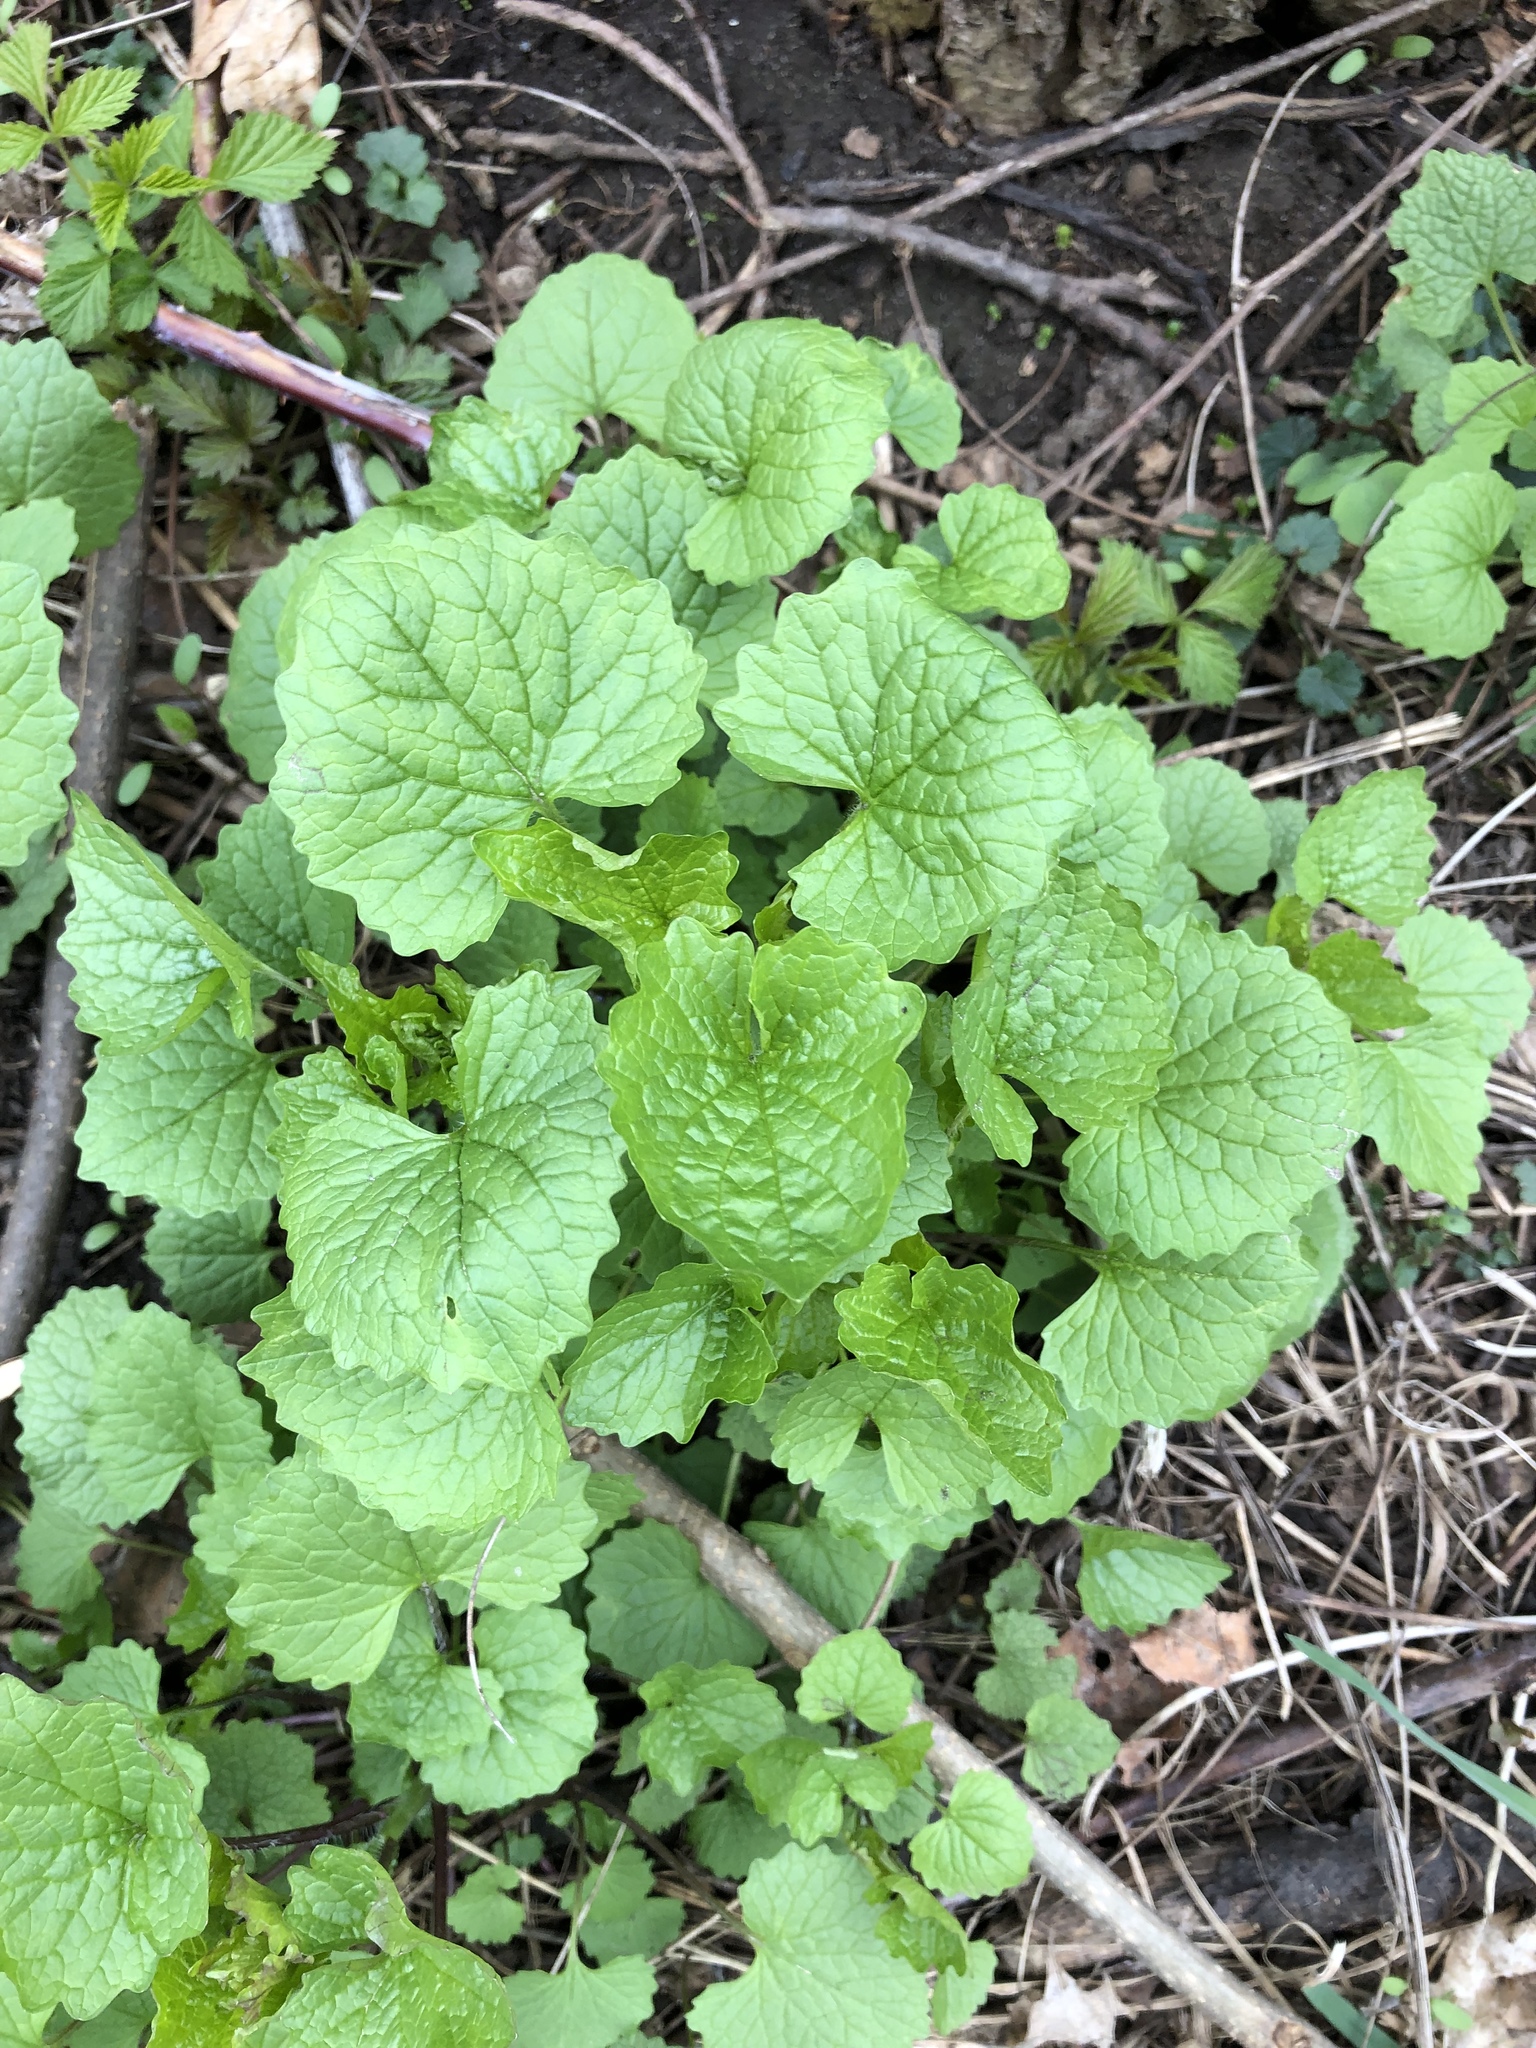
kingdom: Plantae
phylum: Tracheophyta
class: Magnoliopsida
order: Brassicales
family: Brassicaceae
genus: Alliaria
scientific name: Alliaria petiolata
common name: Garlic mustard
